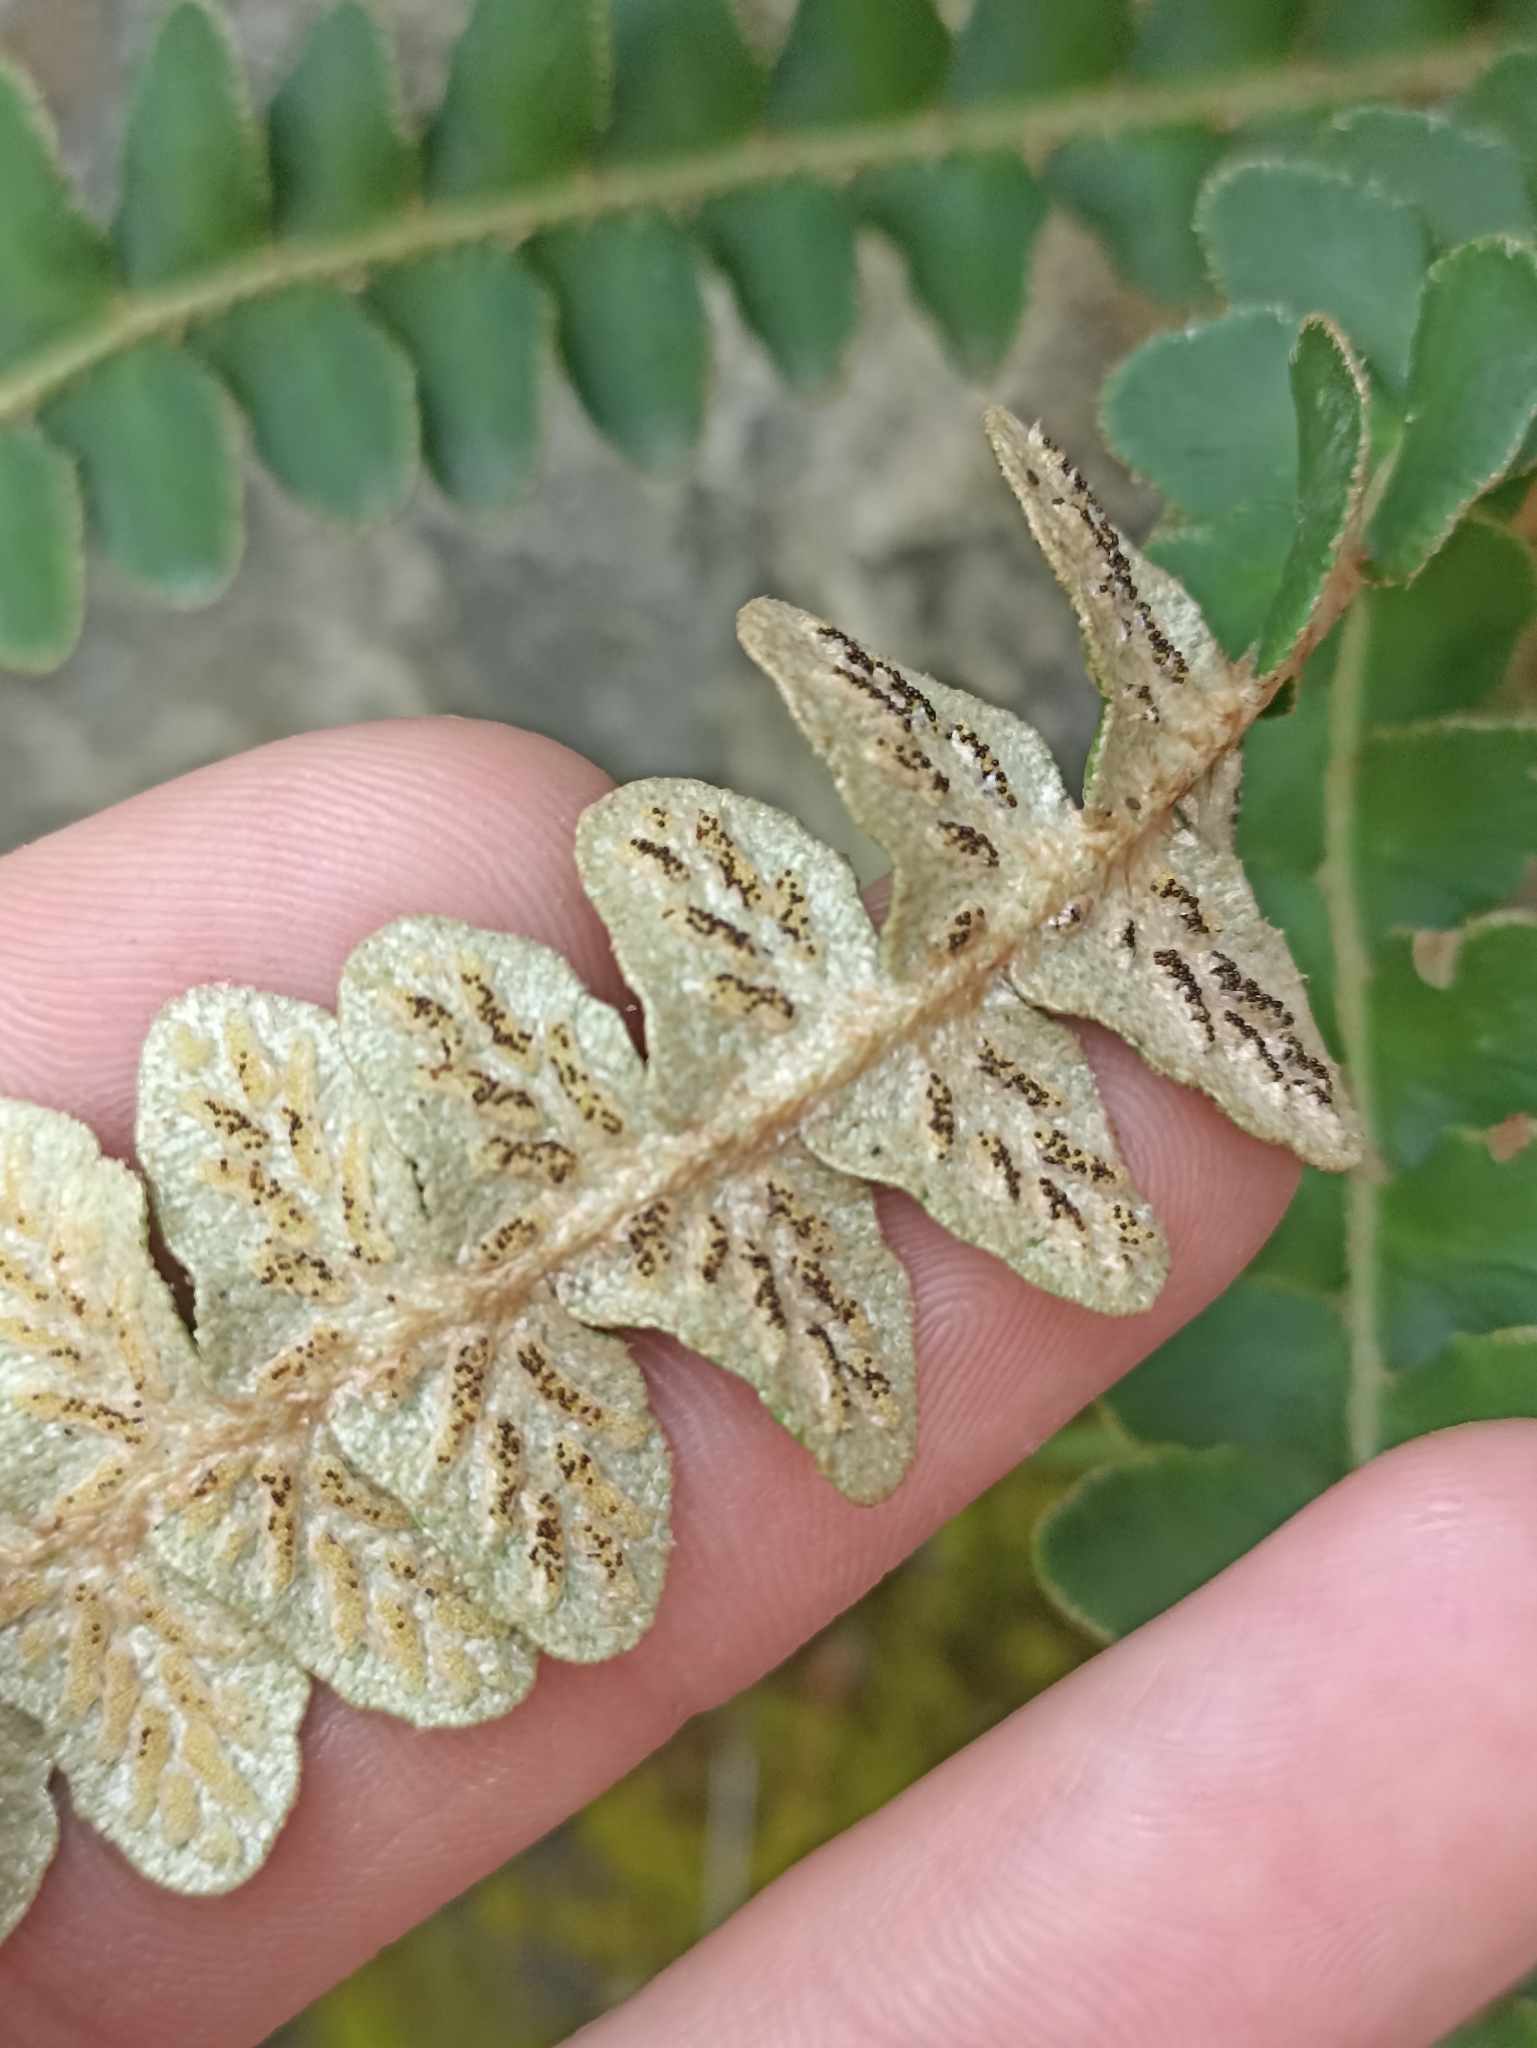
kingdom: Plantae
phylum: Tracheophyta
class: Polypodiopsida
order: Polypodiales
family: Aspleniaceae
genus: Asplenium
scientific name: Asplenium ceterach
